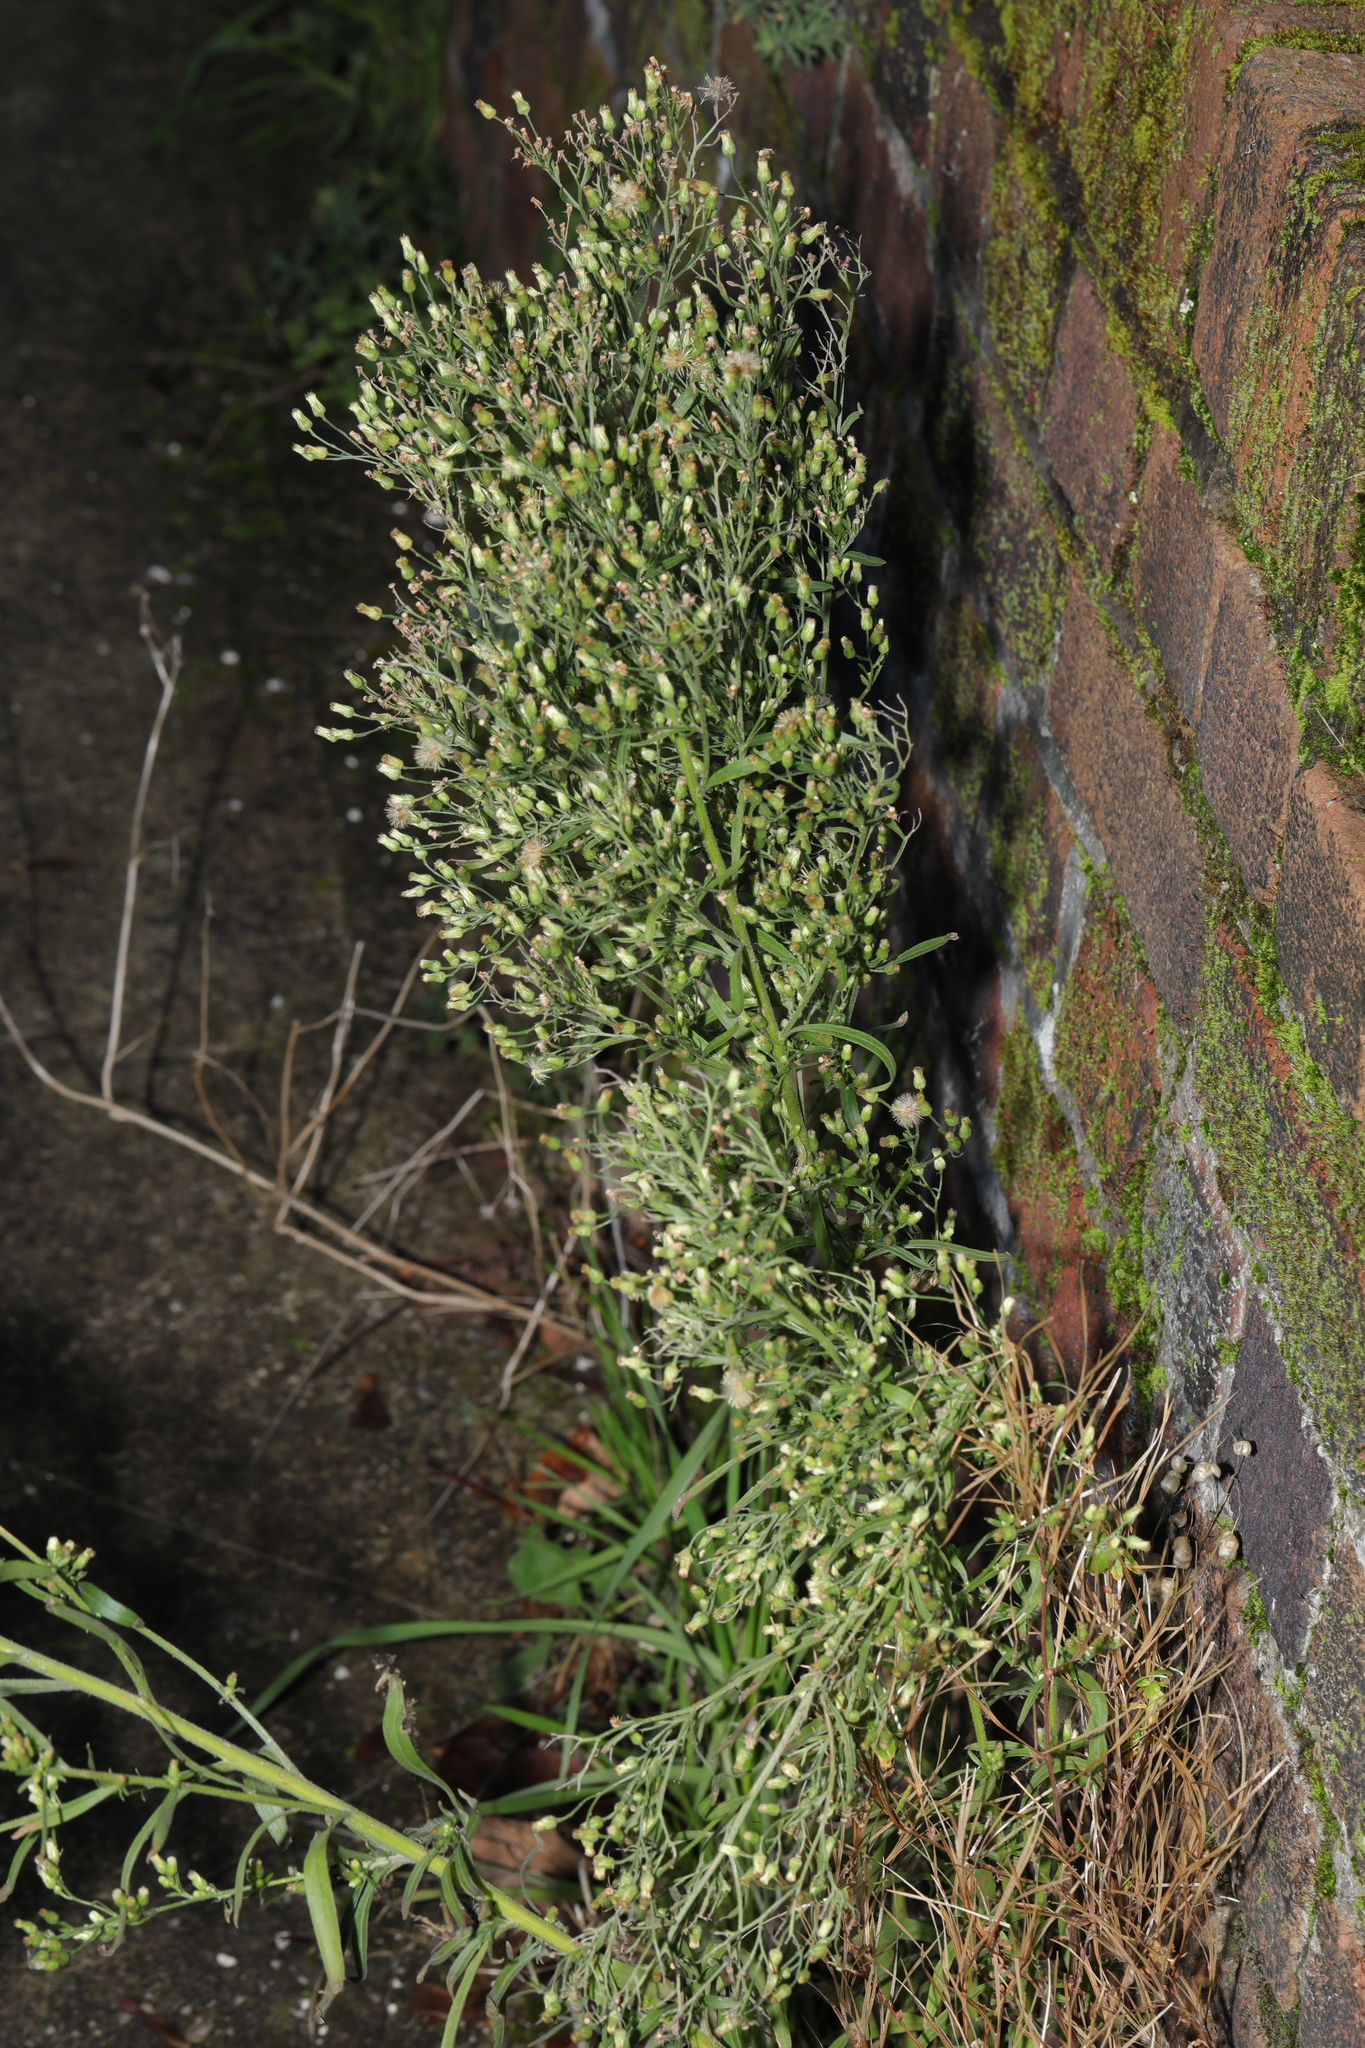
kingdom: Plantae
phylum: Tracheophyta
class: Magnoliopsida
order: Asterales
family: Asteraceae
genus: Erigeron
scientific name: Erigeron sumatrensis
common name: Daisy
